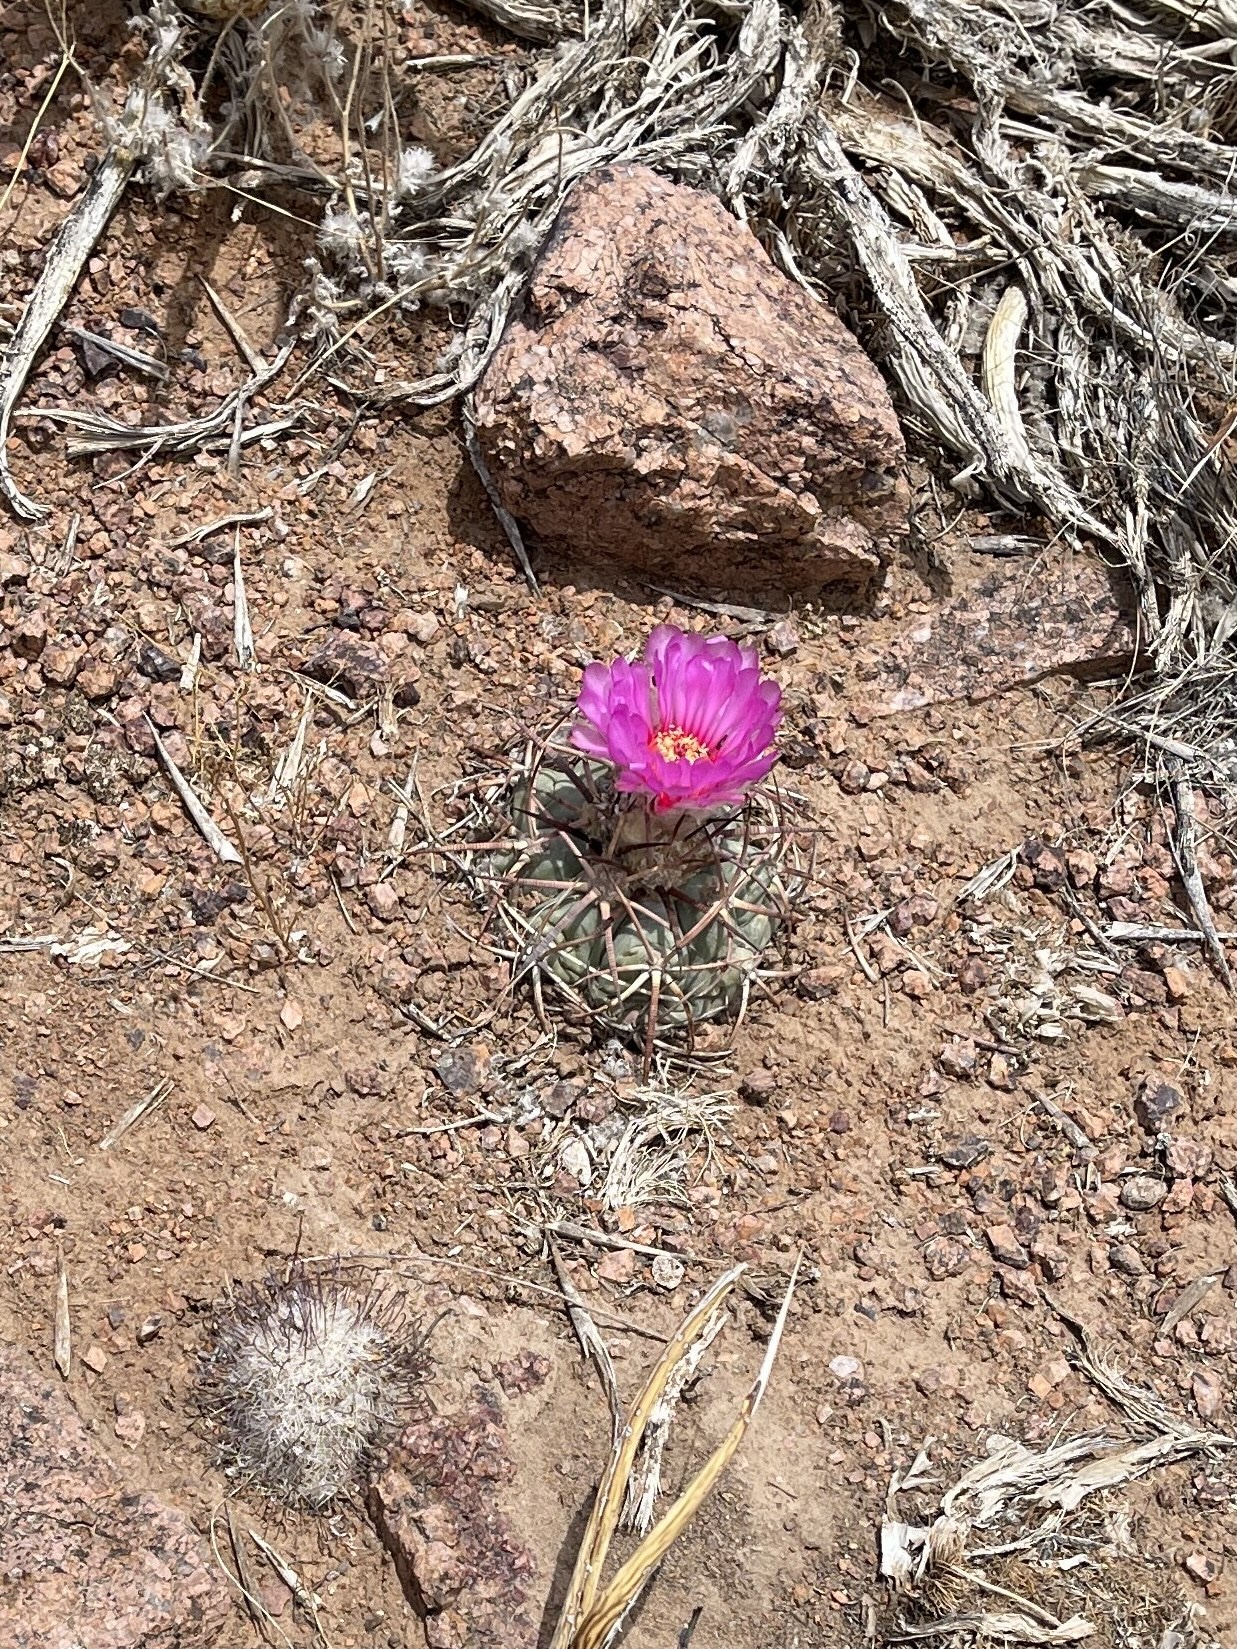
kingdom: Plantae
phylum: Tracheophyta
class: Magnoliopsida
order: Caryophyllales
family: Cactaceae
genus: Echinocactus
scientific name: Echinocactus horizonthalonius
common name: Devilshead
